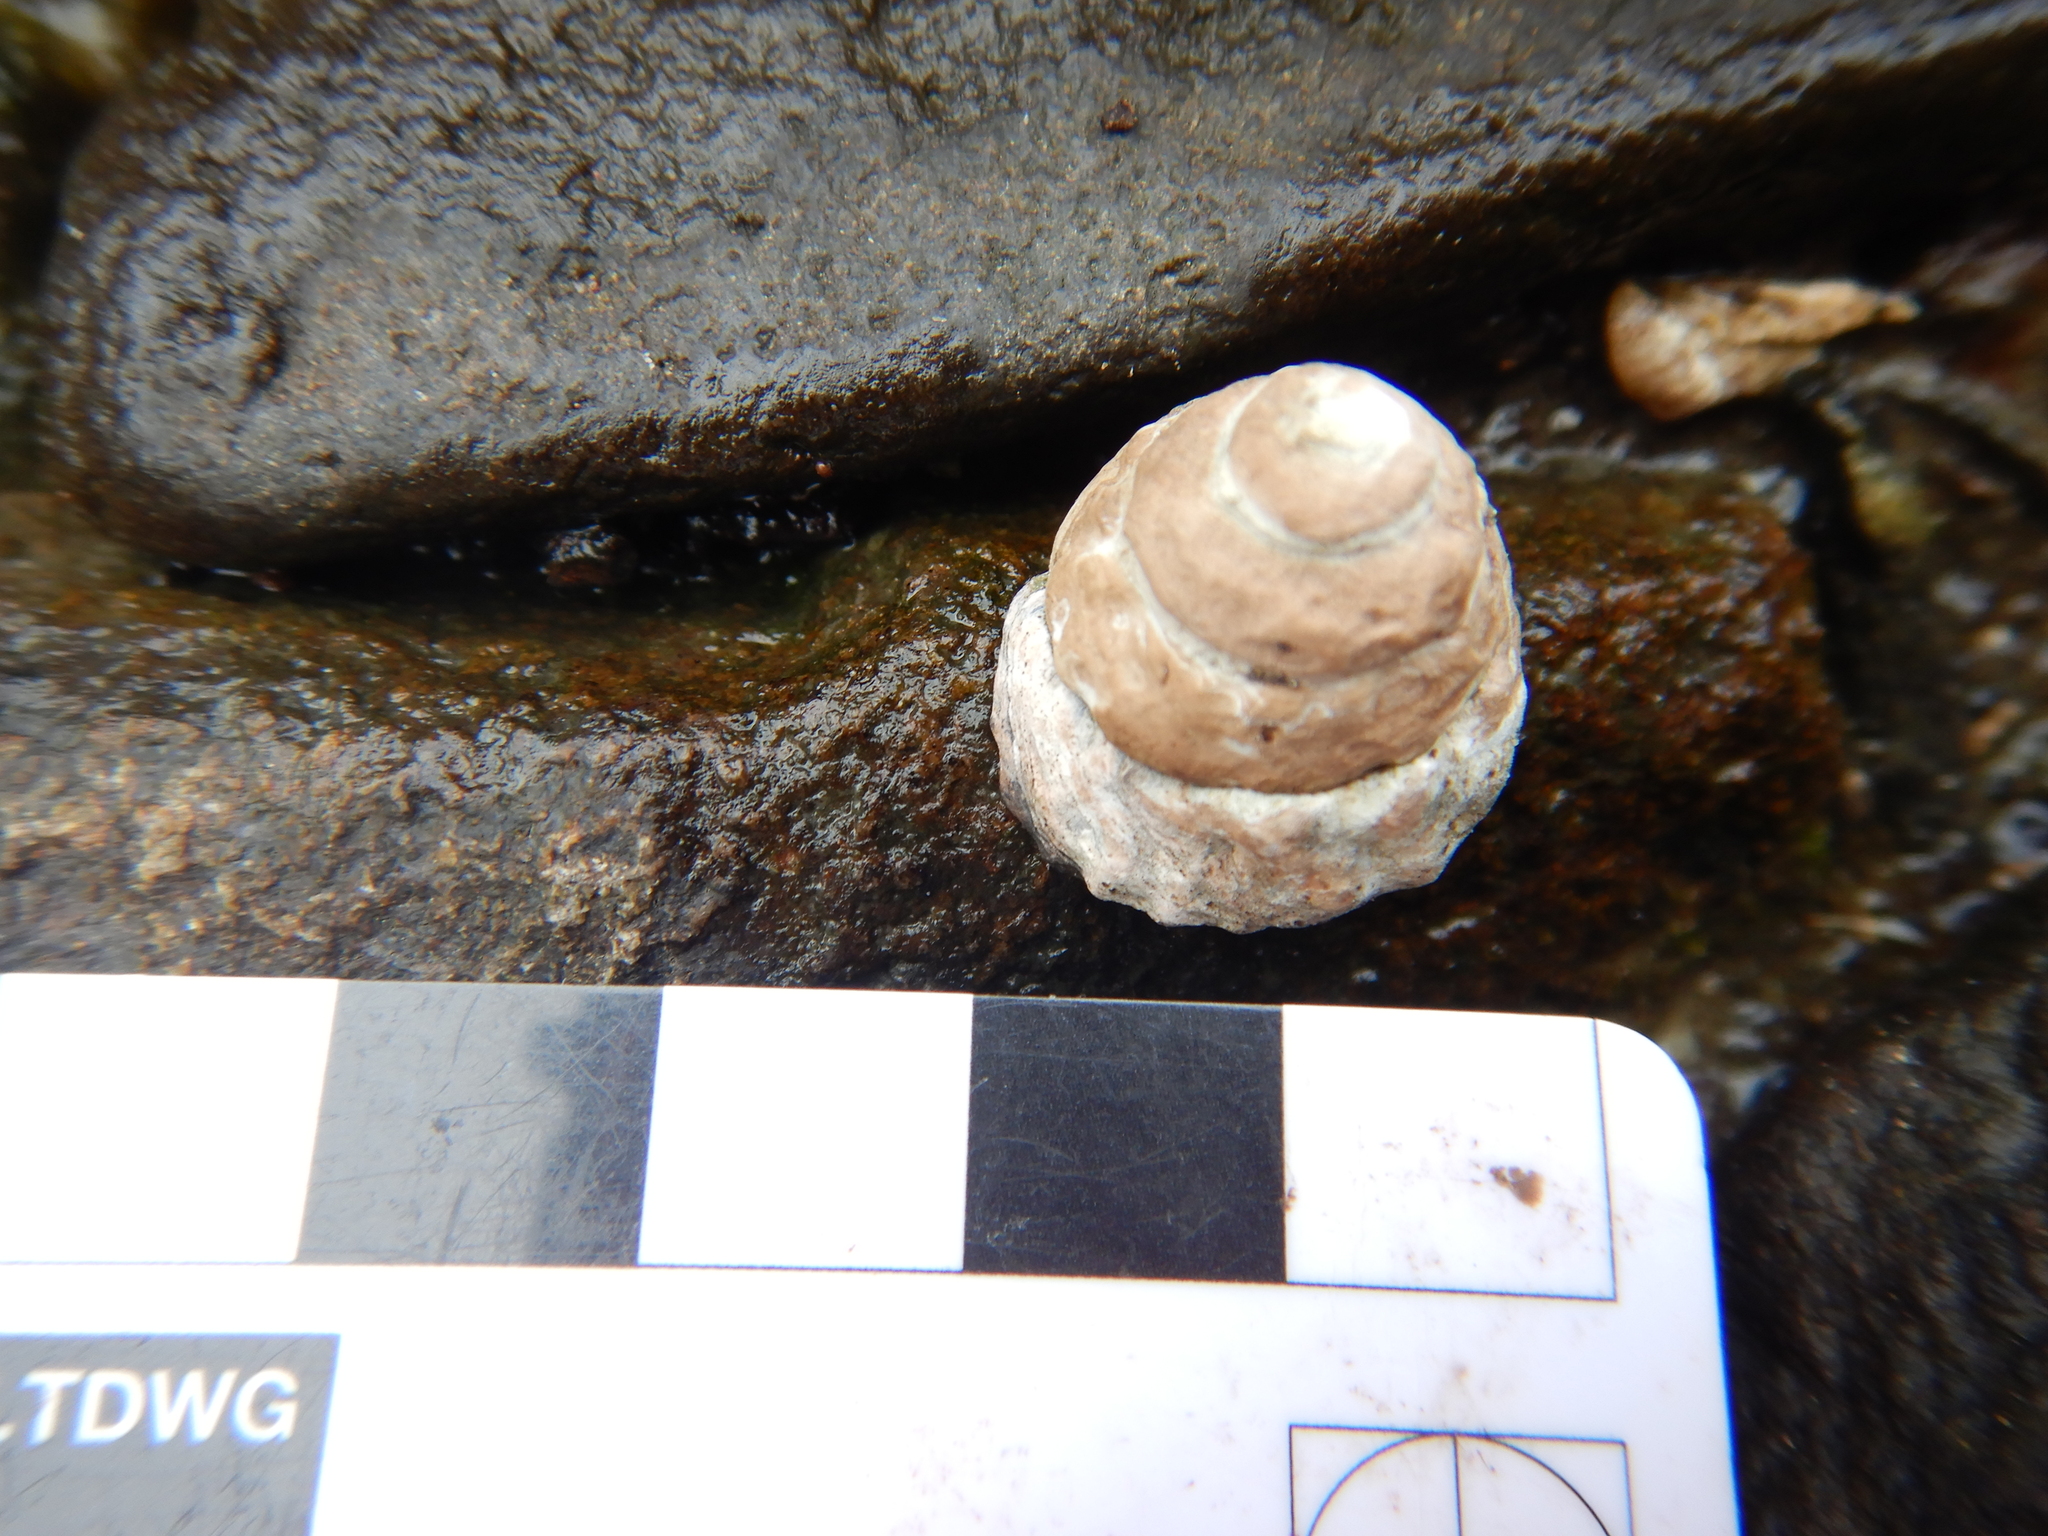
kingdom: Animalia
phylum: Mollusca
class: Gastropoda
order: Littorinimorpha
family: Littorinidae
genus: Bembicium
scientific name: Bembicium auratum
